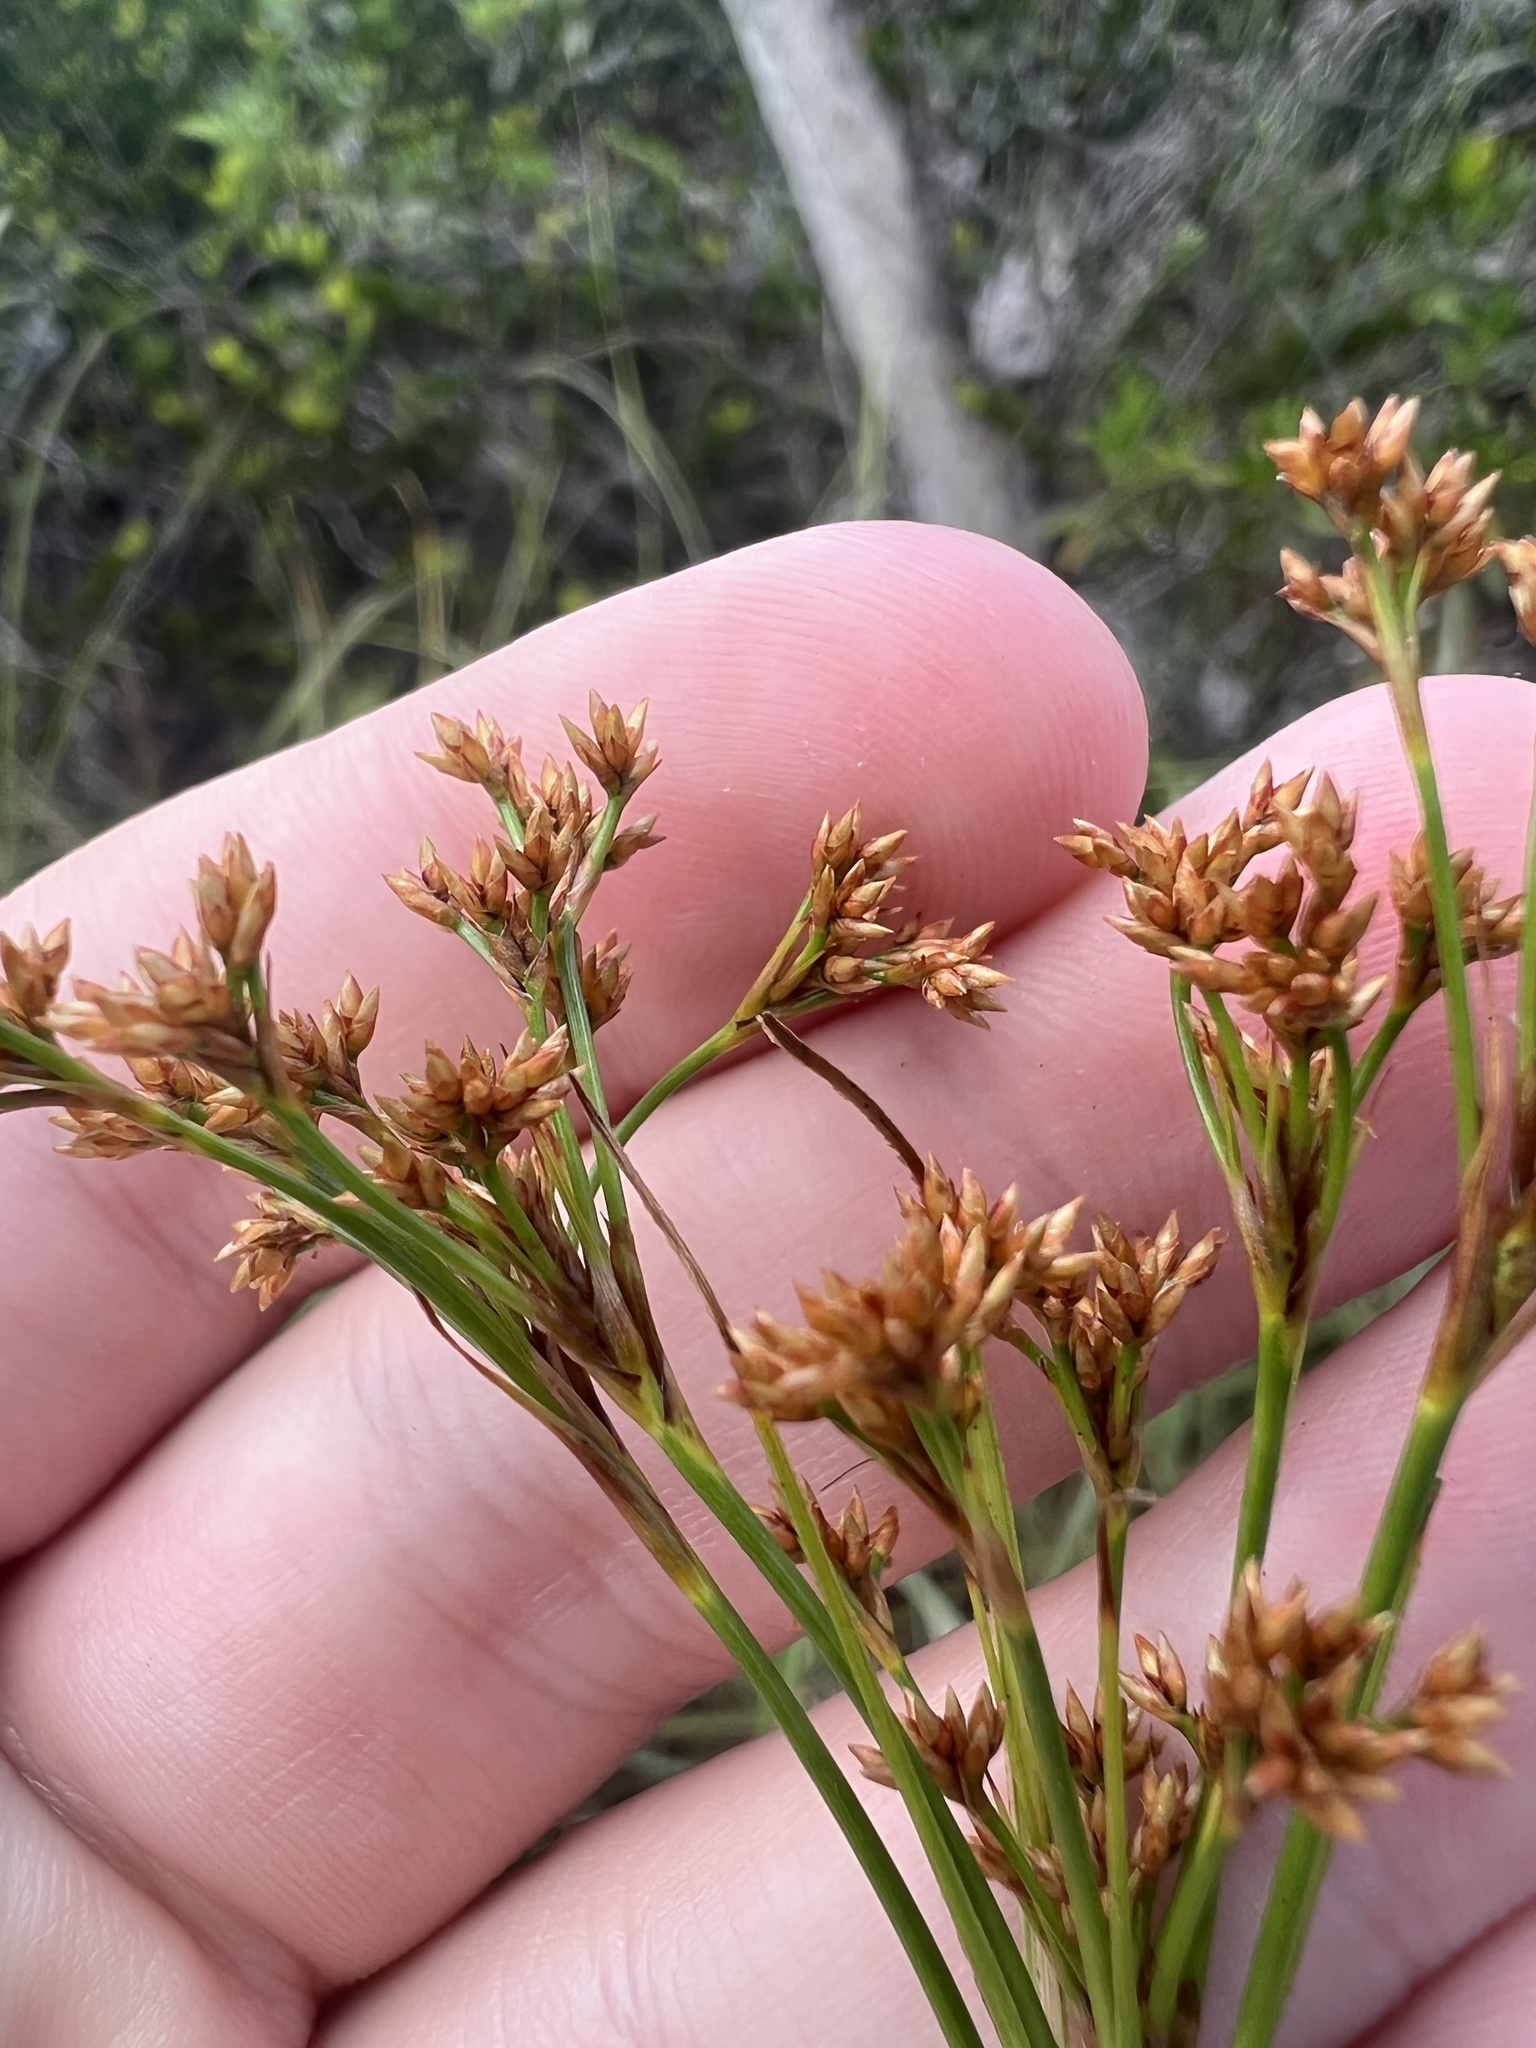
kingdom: Plantae
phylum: Tracheophyta
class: Liliopsida
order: Poales
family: Cyperaceae
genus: Cladium
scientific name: Cladium mariscus
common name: Great fen-sedge
